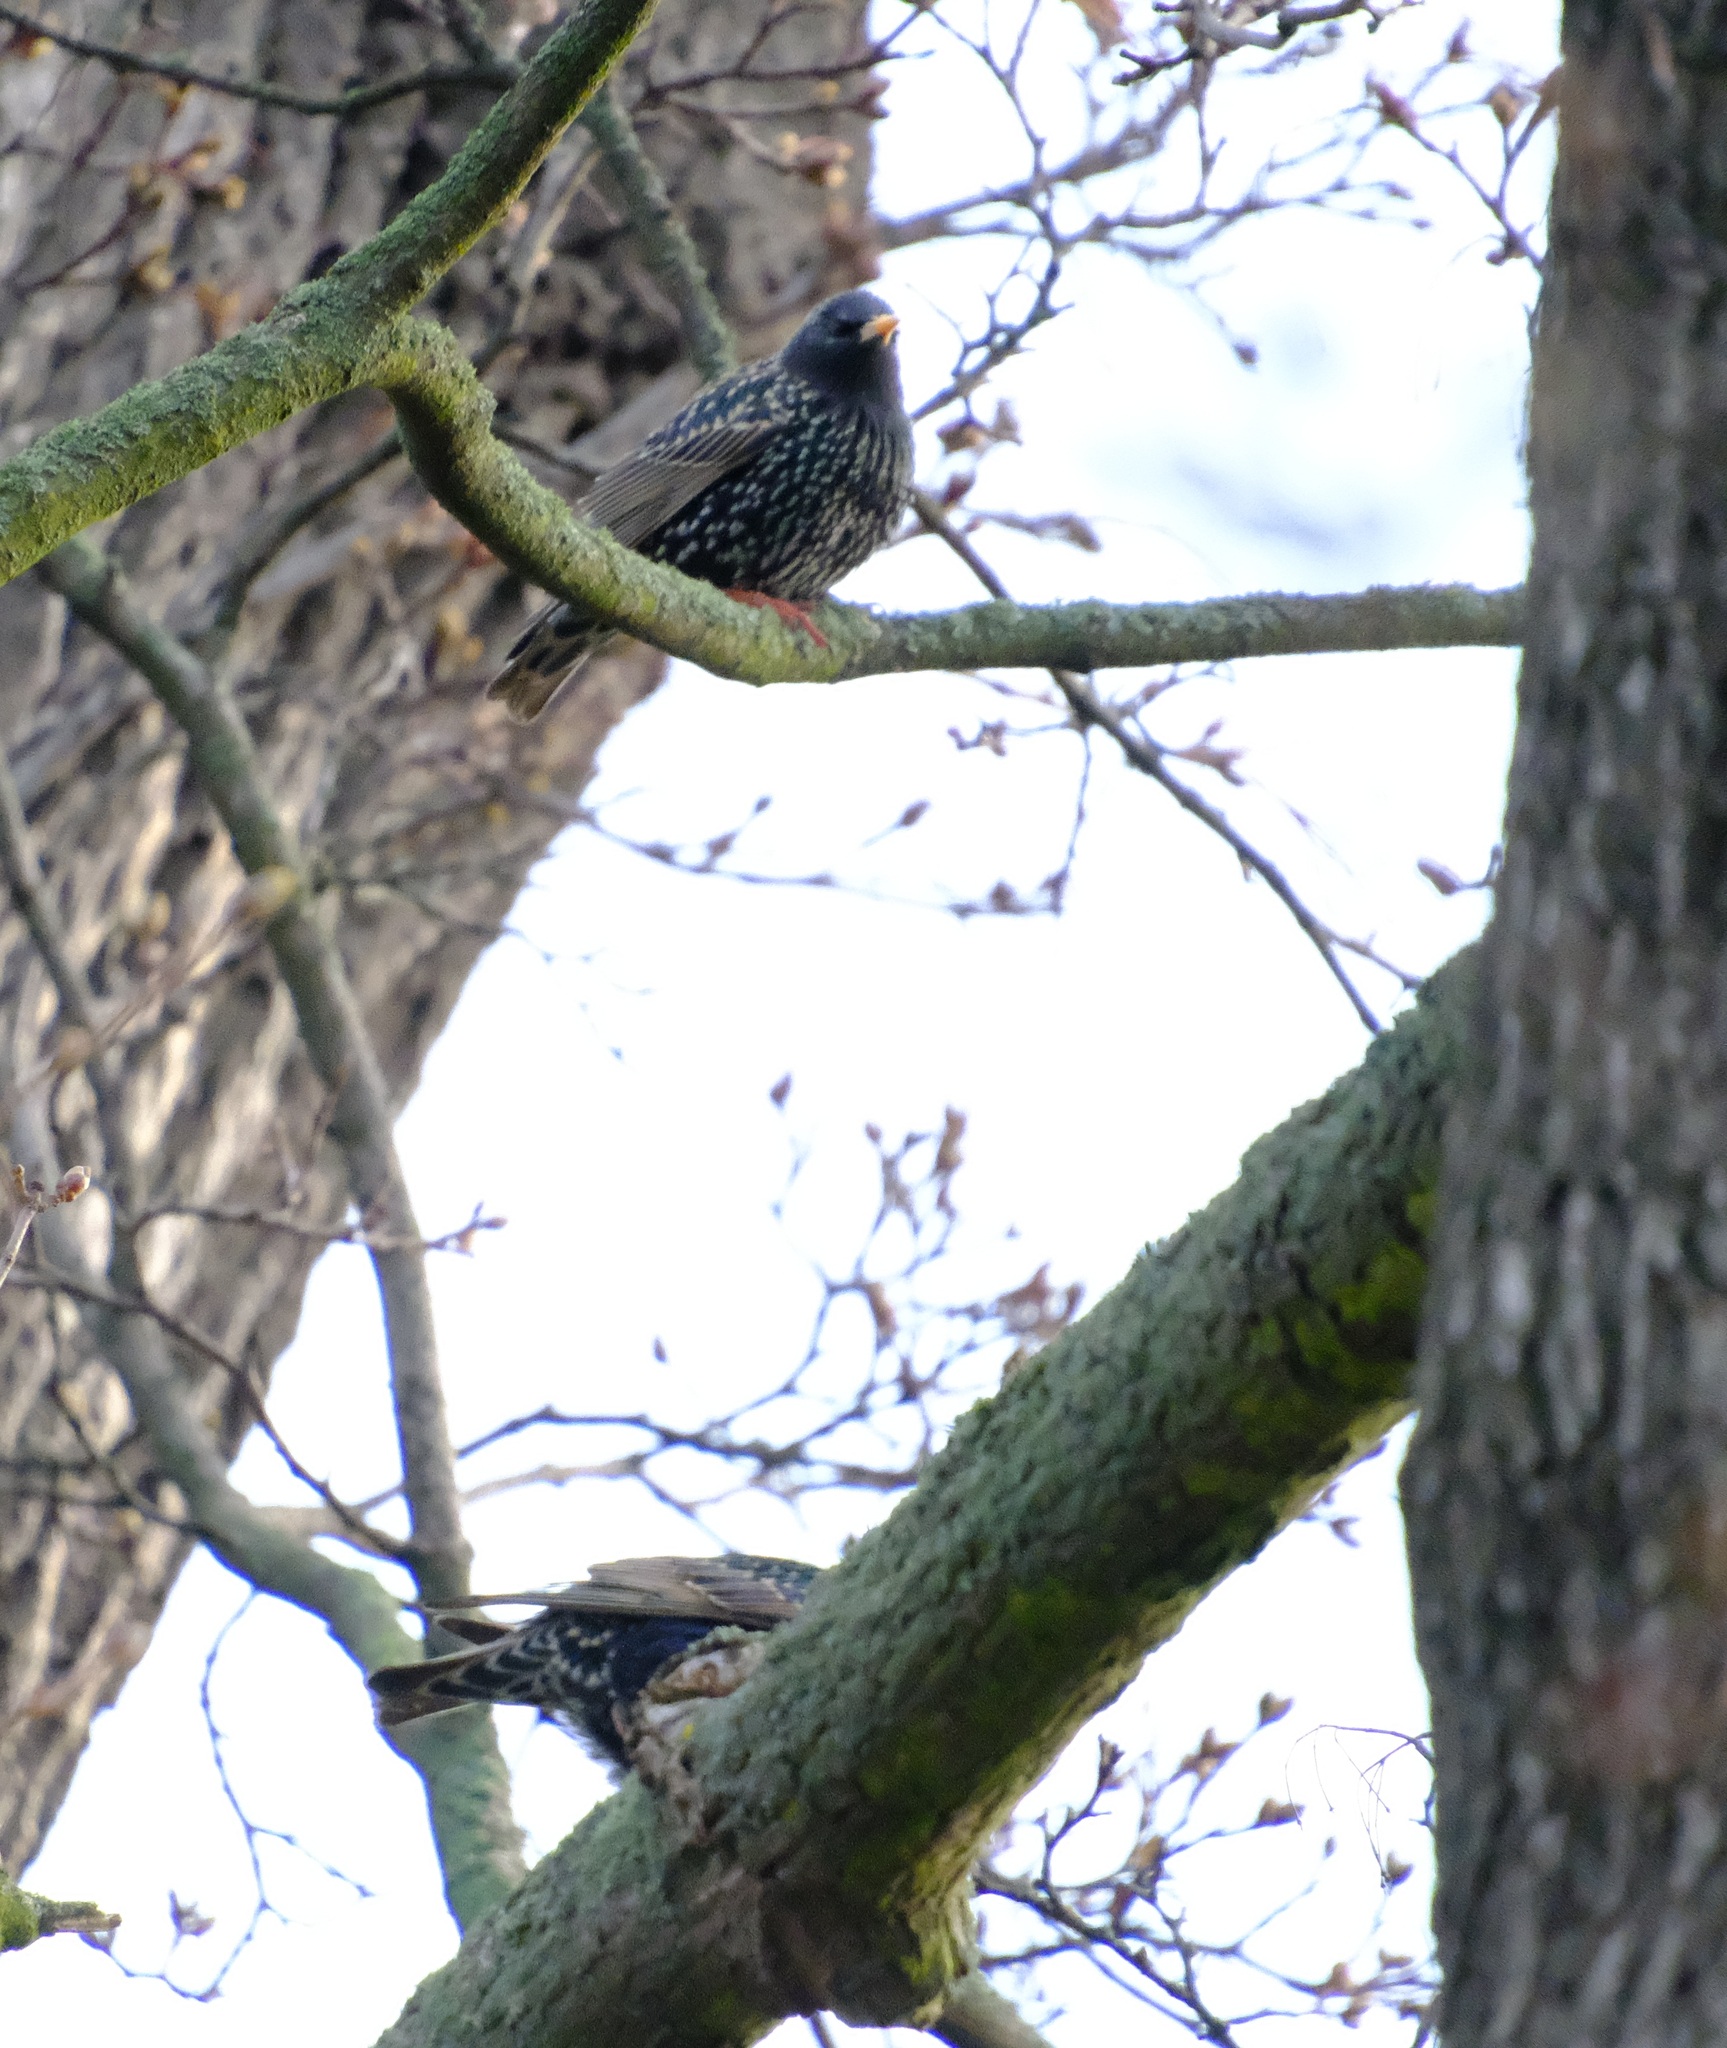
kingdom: Animalia
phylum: Chordata
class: Aves
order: Passeriformes
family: Sturnidae
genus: Sturnus
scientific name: Sturnus vulgaris
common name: Common starling
